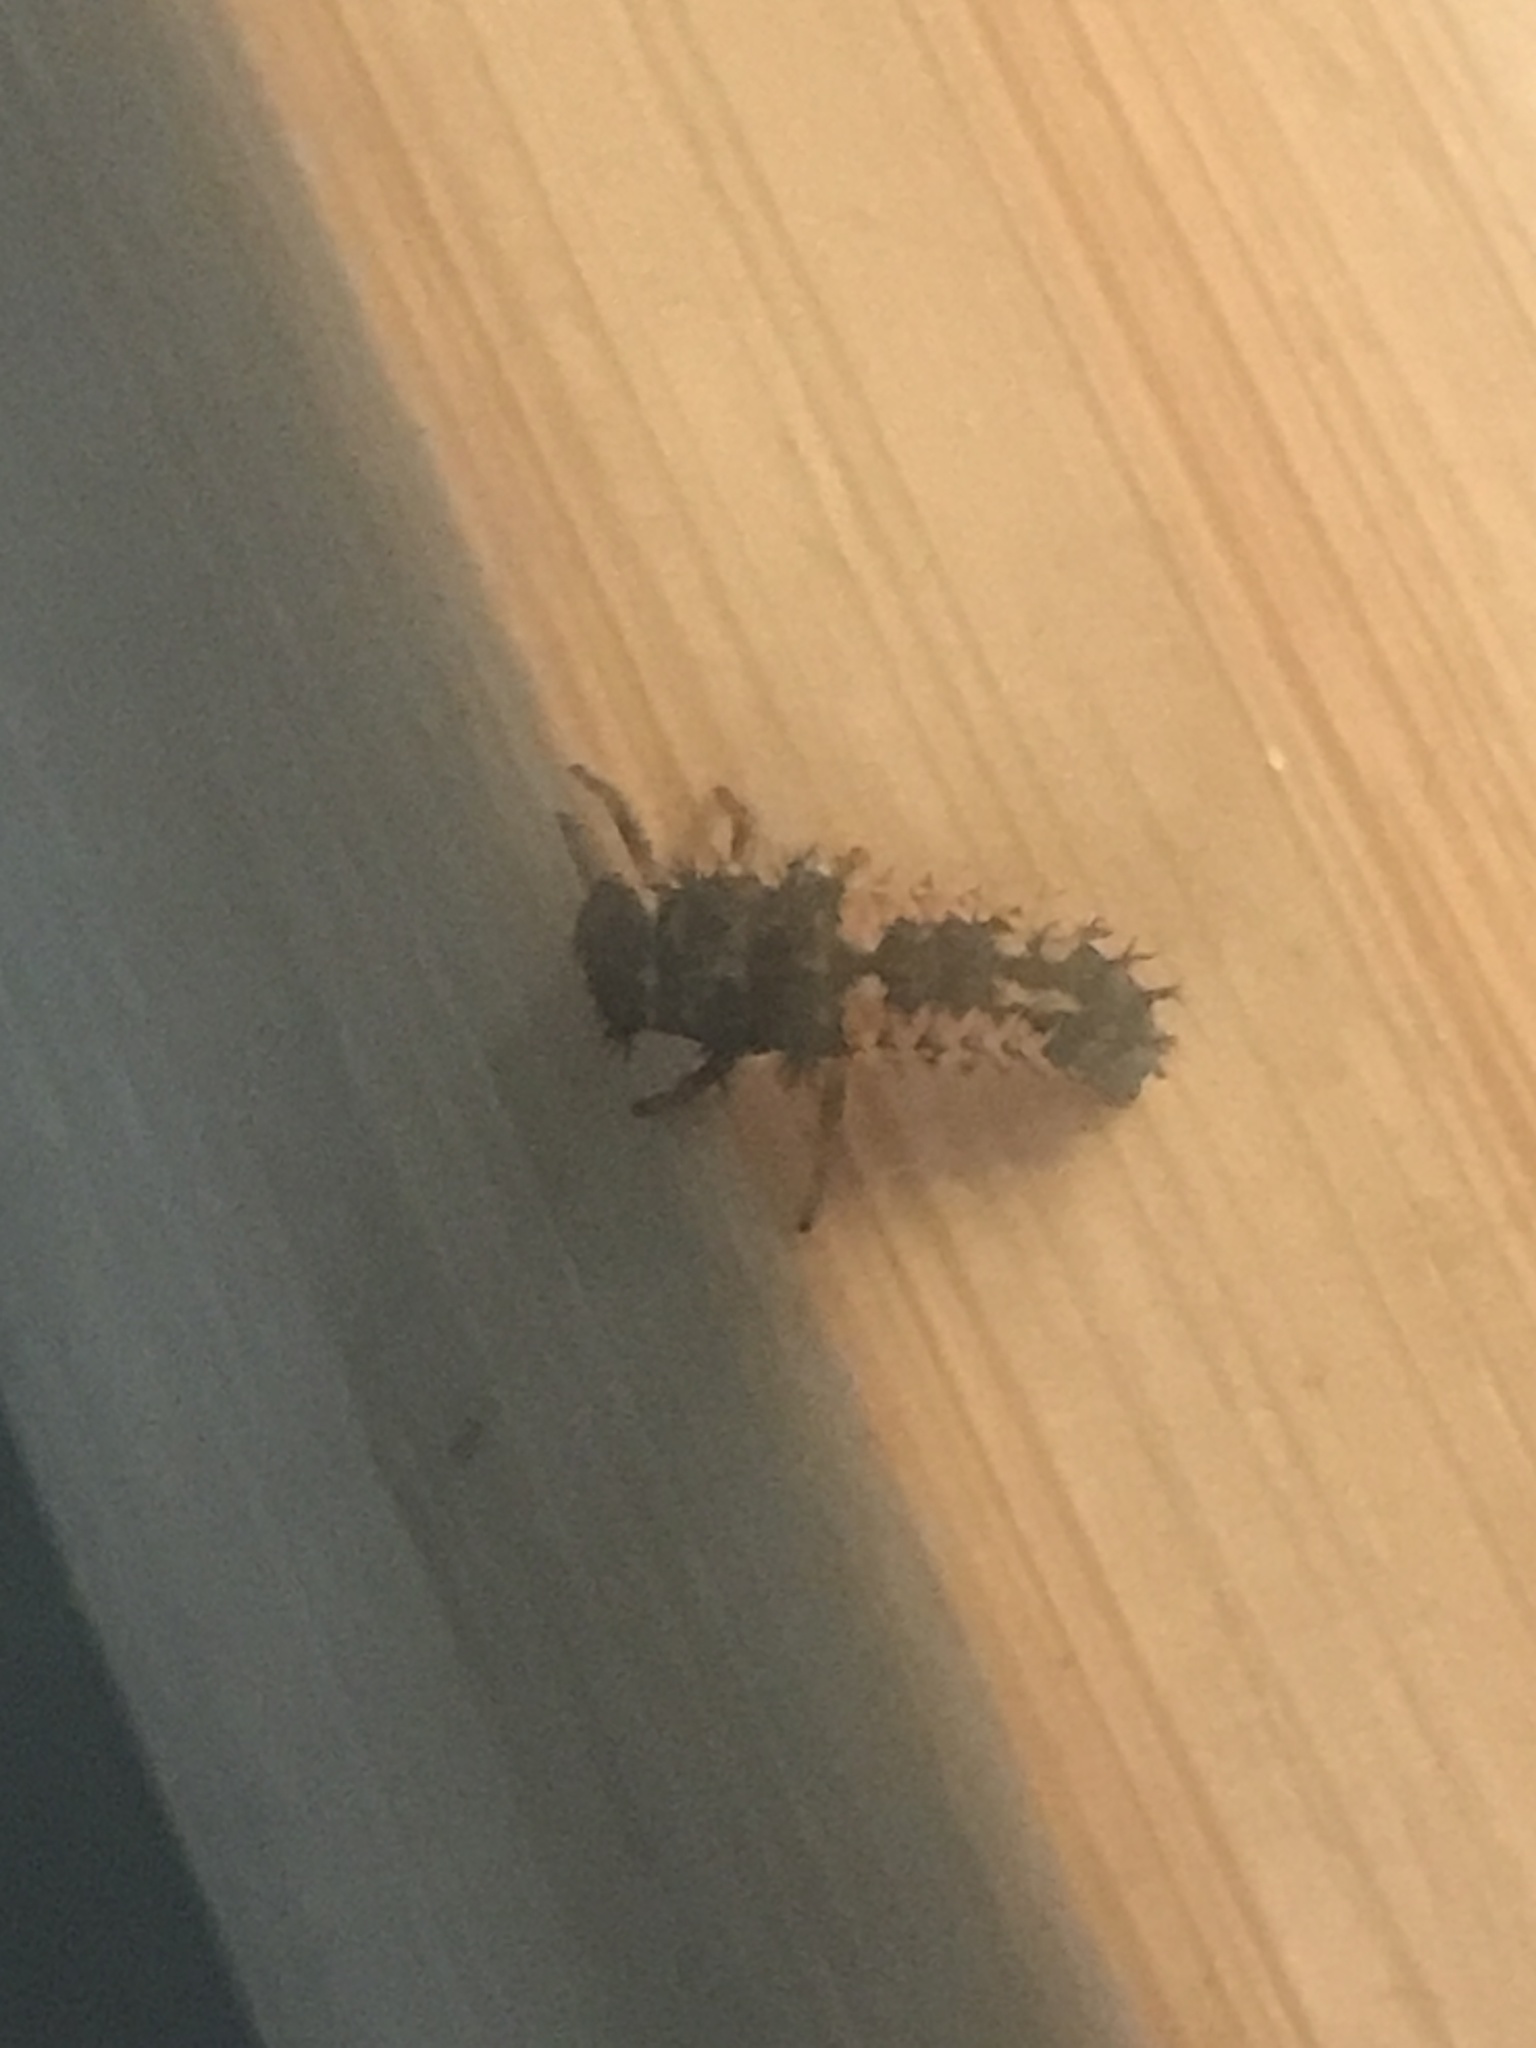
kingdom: Animalia
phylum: Arthropoda
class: Insecta
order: Coleoptera
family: Coccinellidae
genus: Harmonia
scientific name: Harmonia axyridis
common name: Harlequin ladybird
